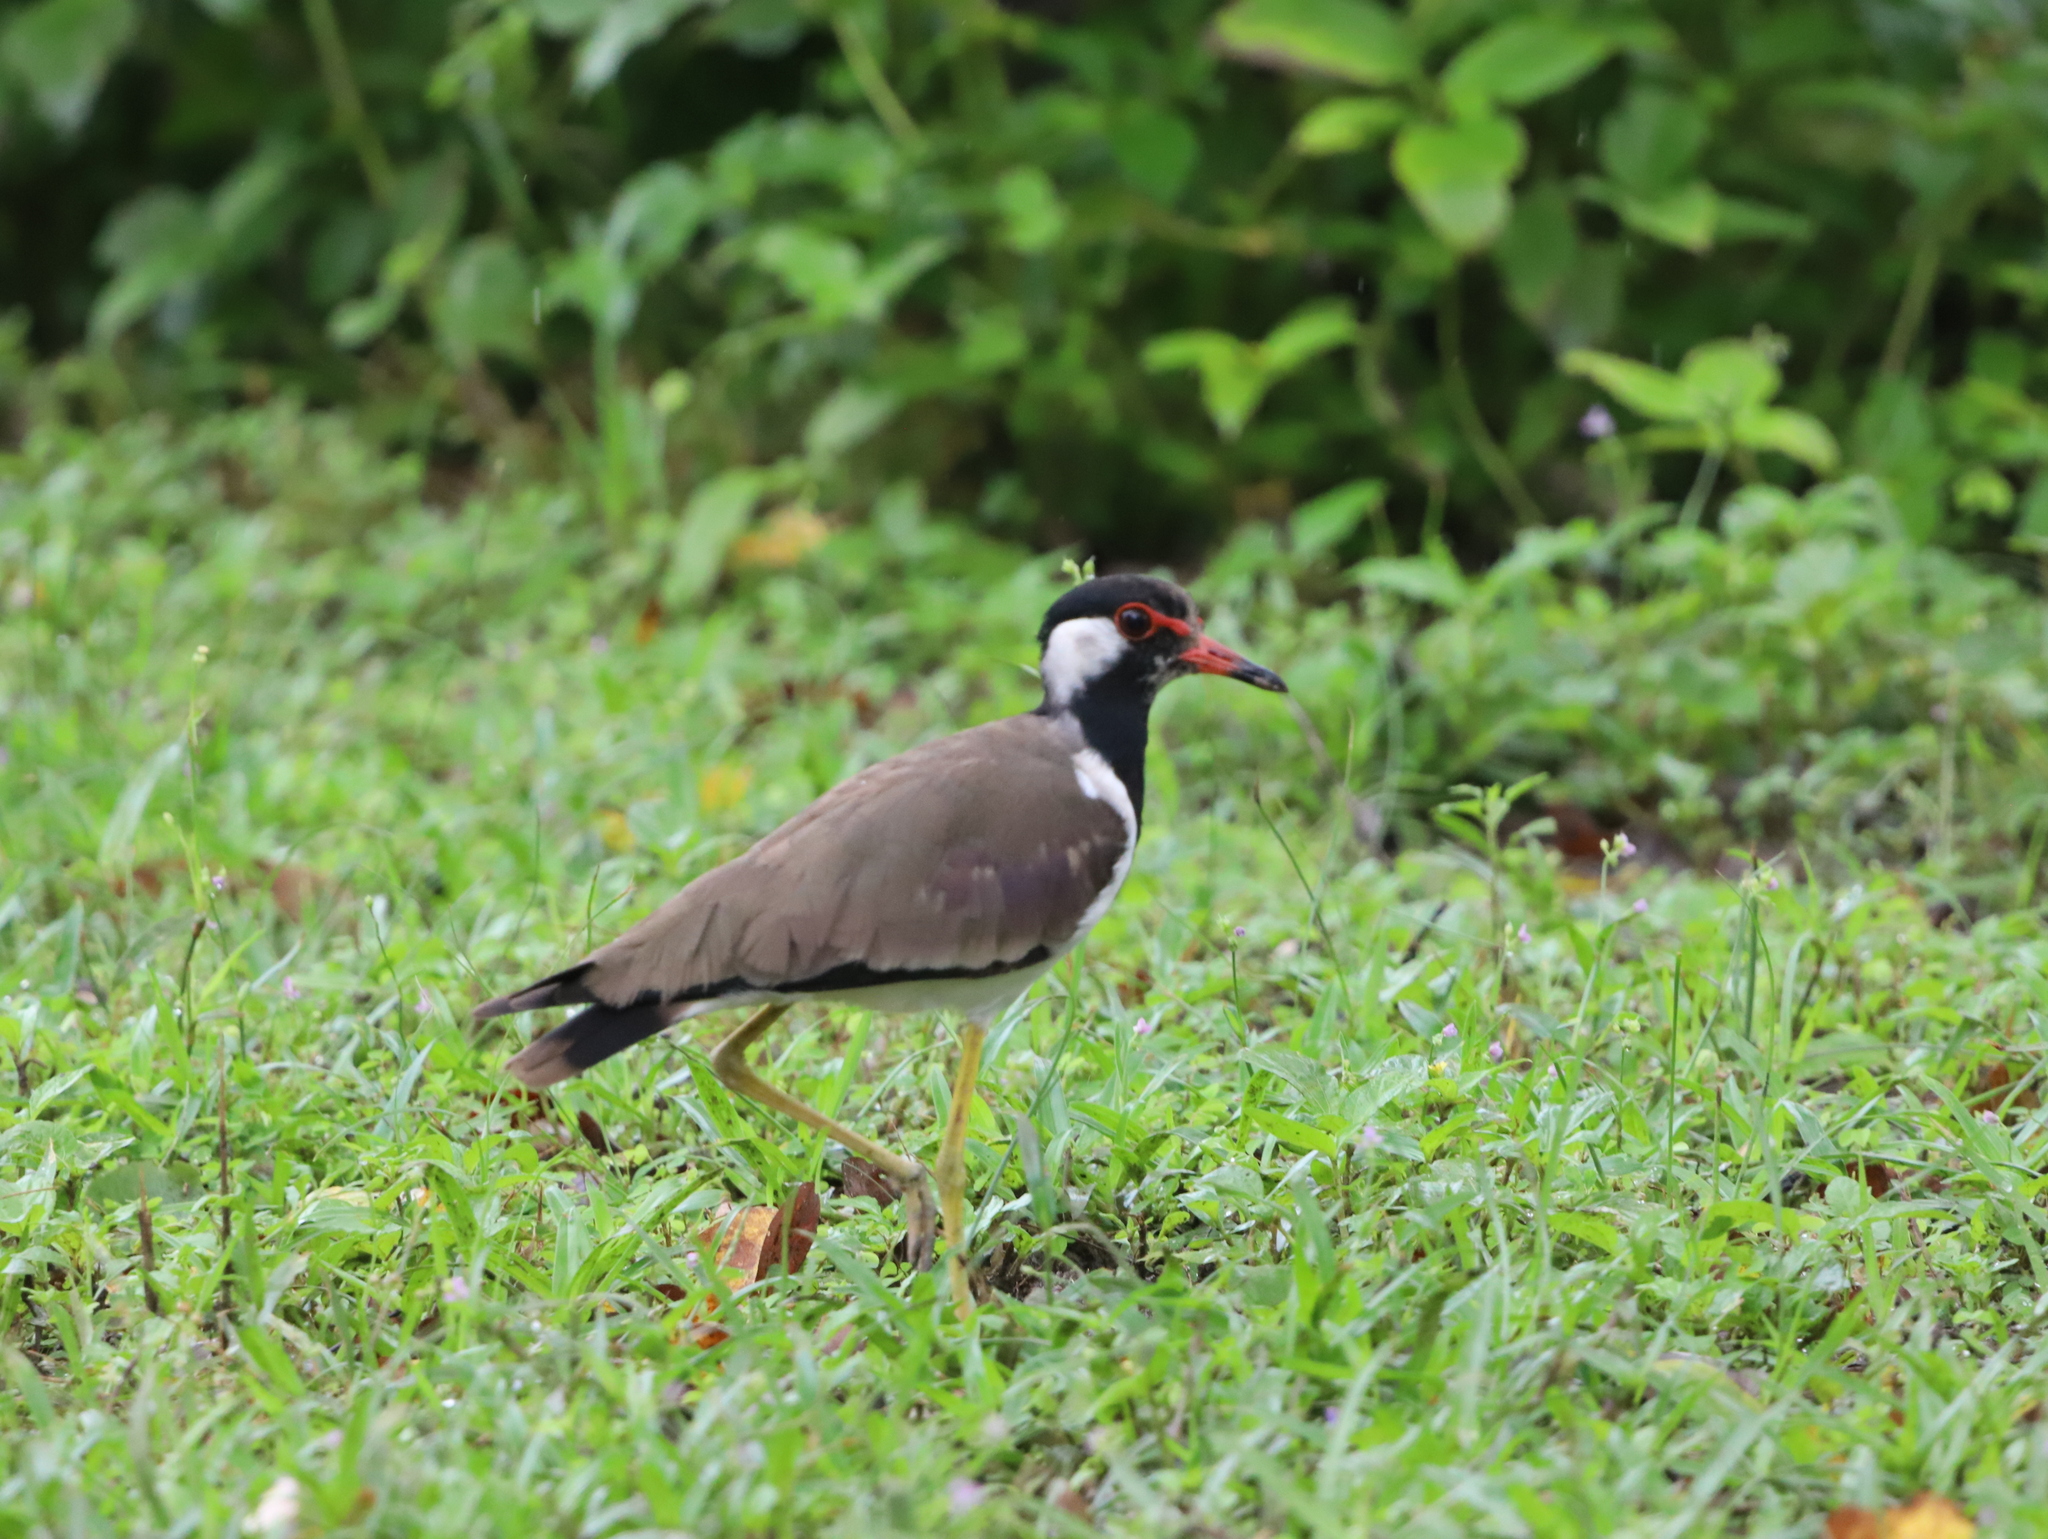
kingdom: Animalia
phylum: Chordata
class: Aves
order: Charadriiformes
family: Charadriidae
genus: Vanellus
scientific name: Vanellus indicus
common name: Red-wattled lapwing
